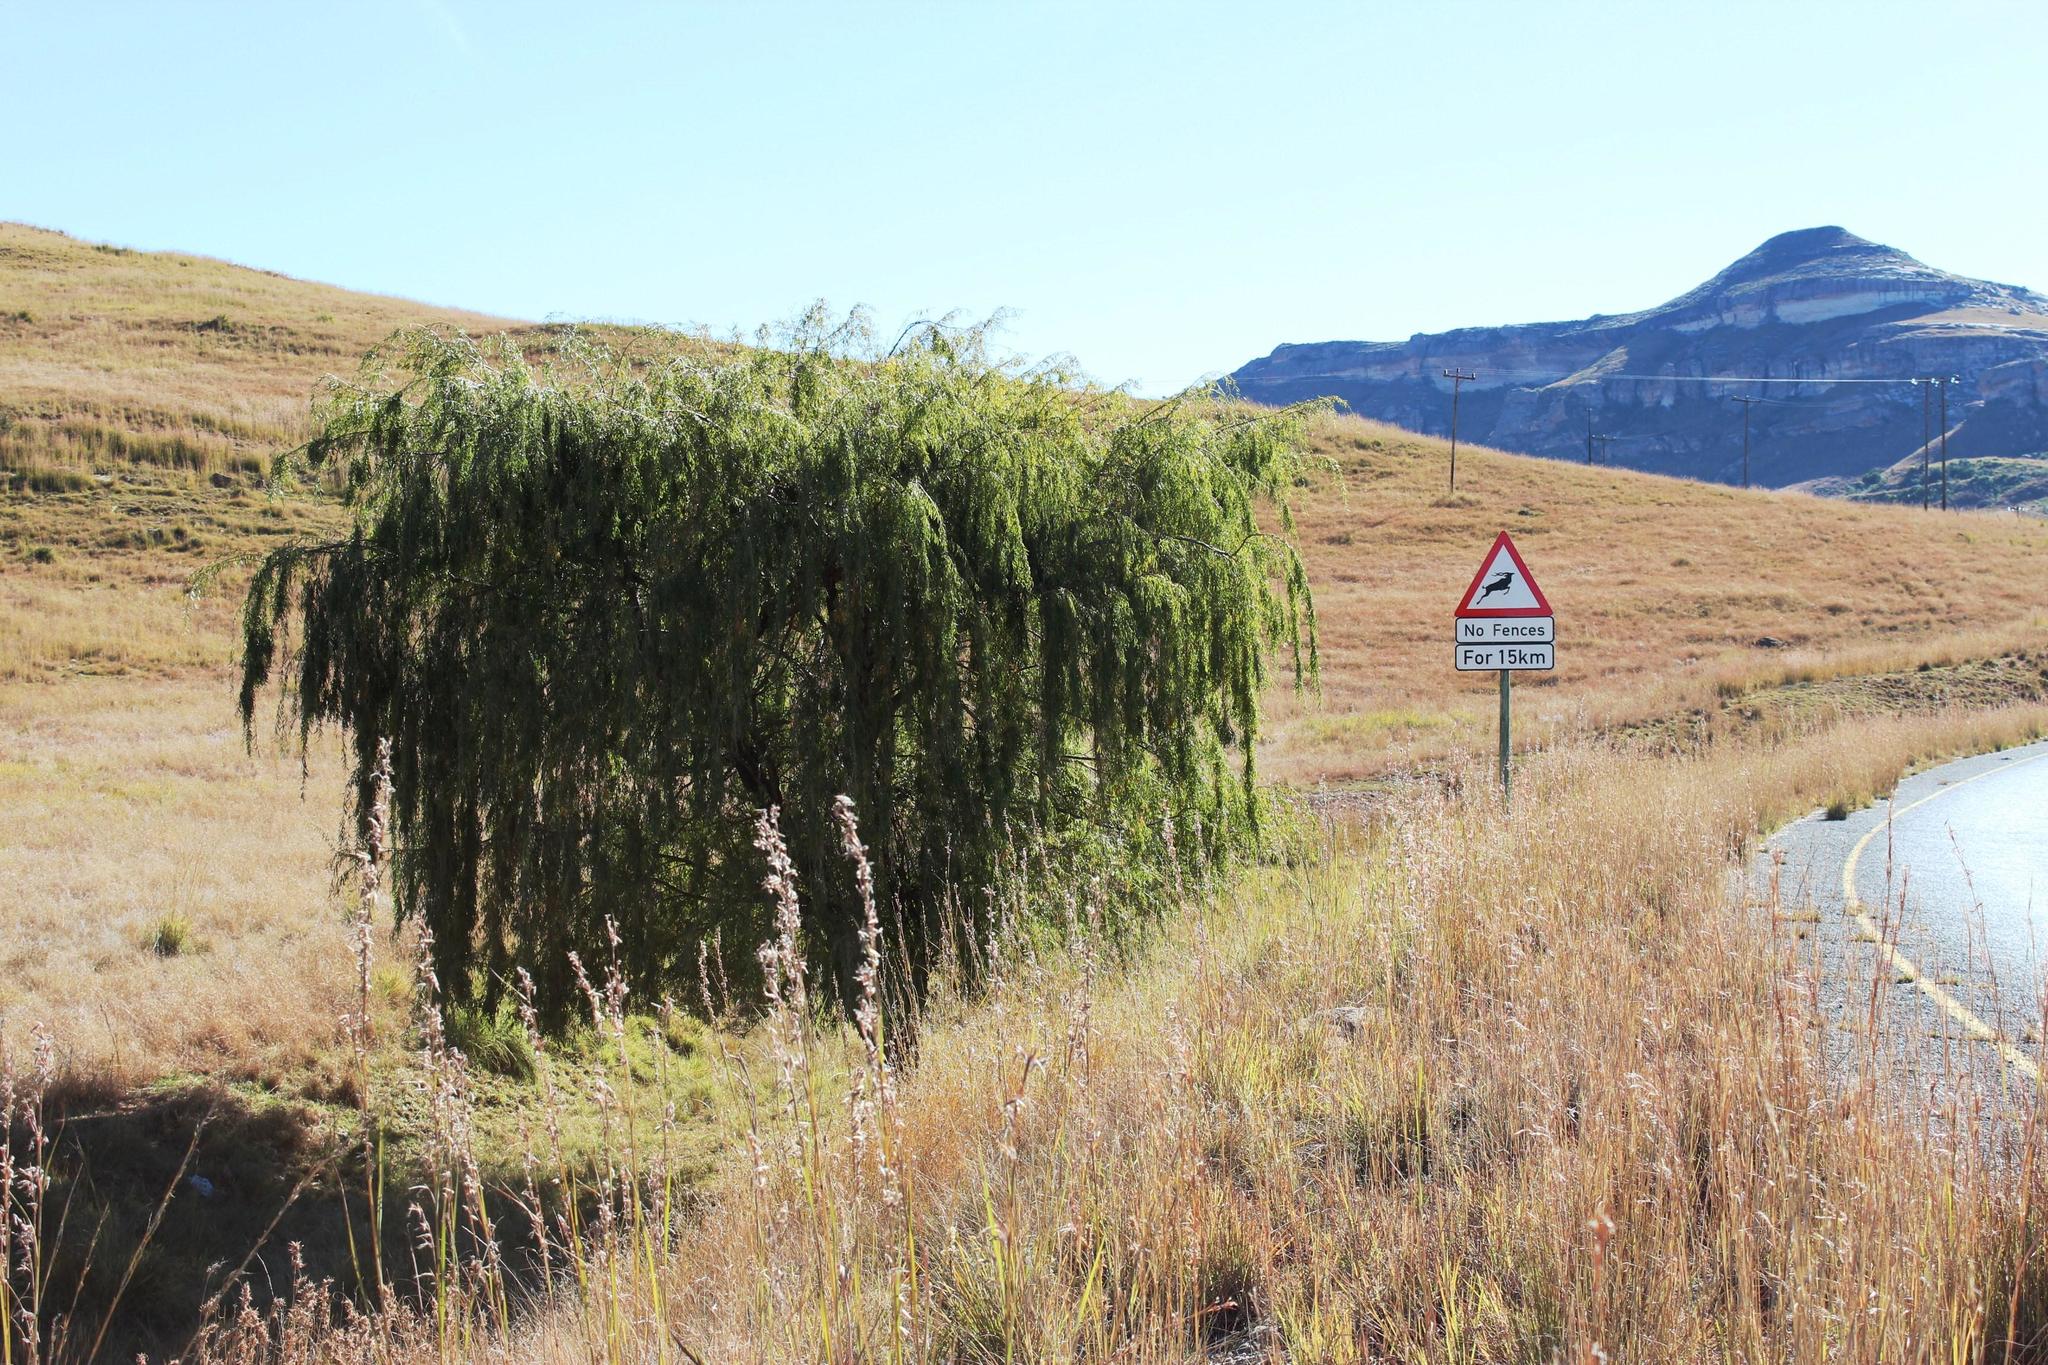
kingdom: Plantae
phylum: Tracheophyta
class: Magnoliopsida
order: Malpighiales
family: Salicaceae
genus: Salix
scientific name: Salix babylonica
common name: Weeping willow
